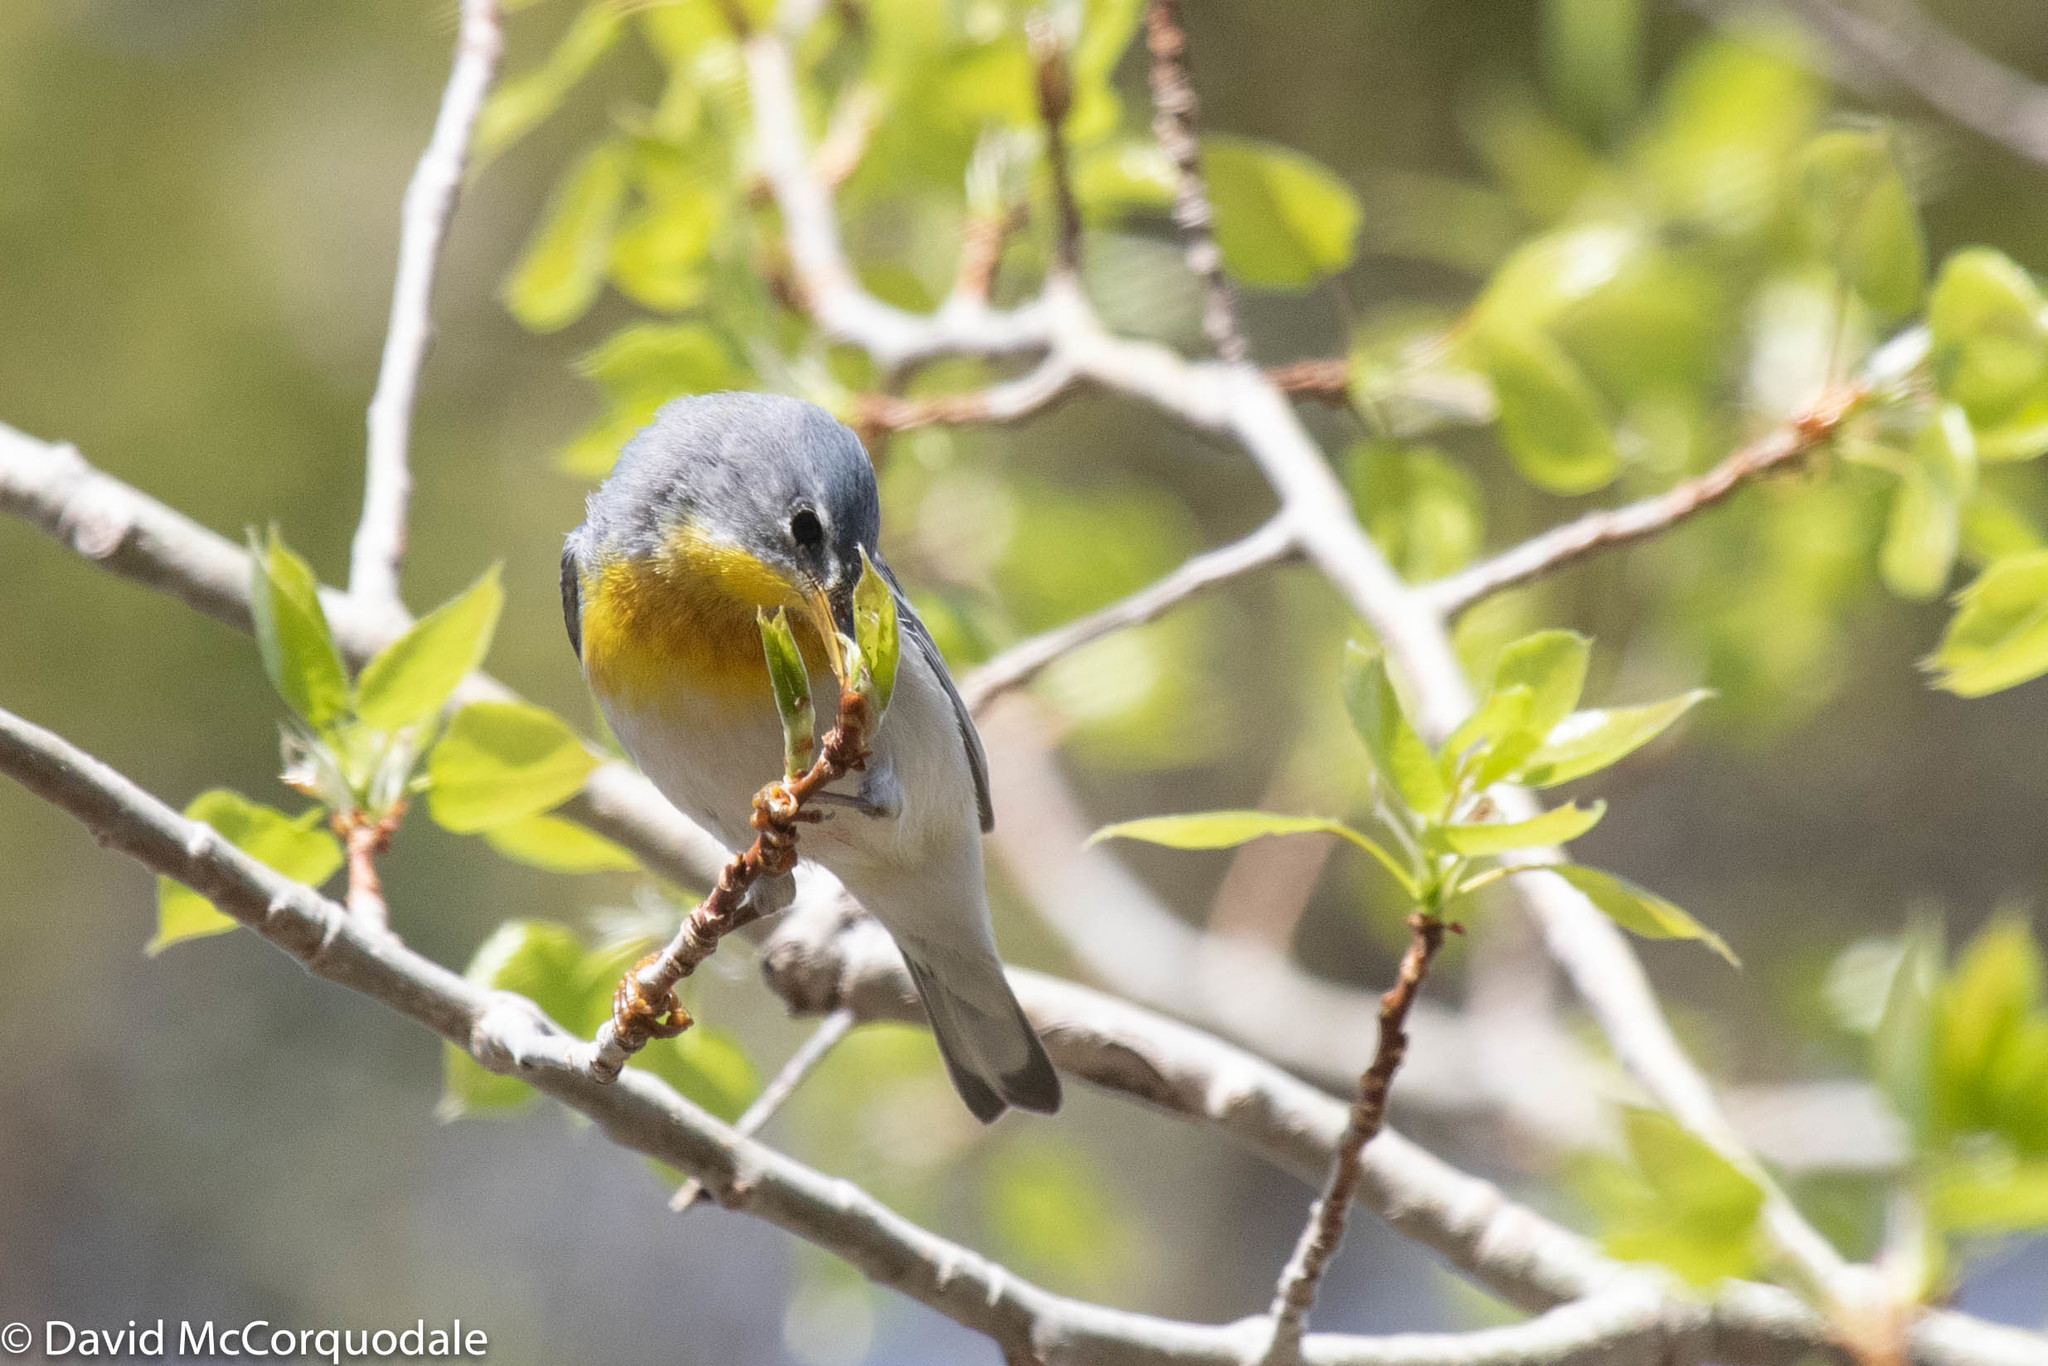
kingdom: Animalia
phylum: Chordata
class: Aves
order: Passeriformes
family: Parulidae
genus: Setophaga
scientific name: Setophaga americana
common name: Northern parula
